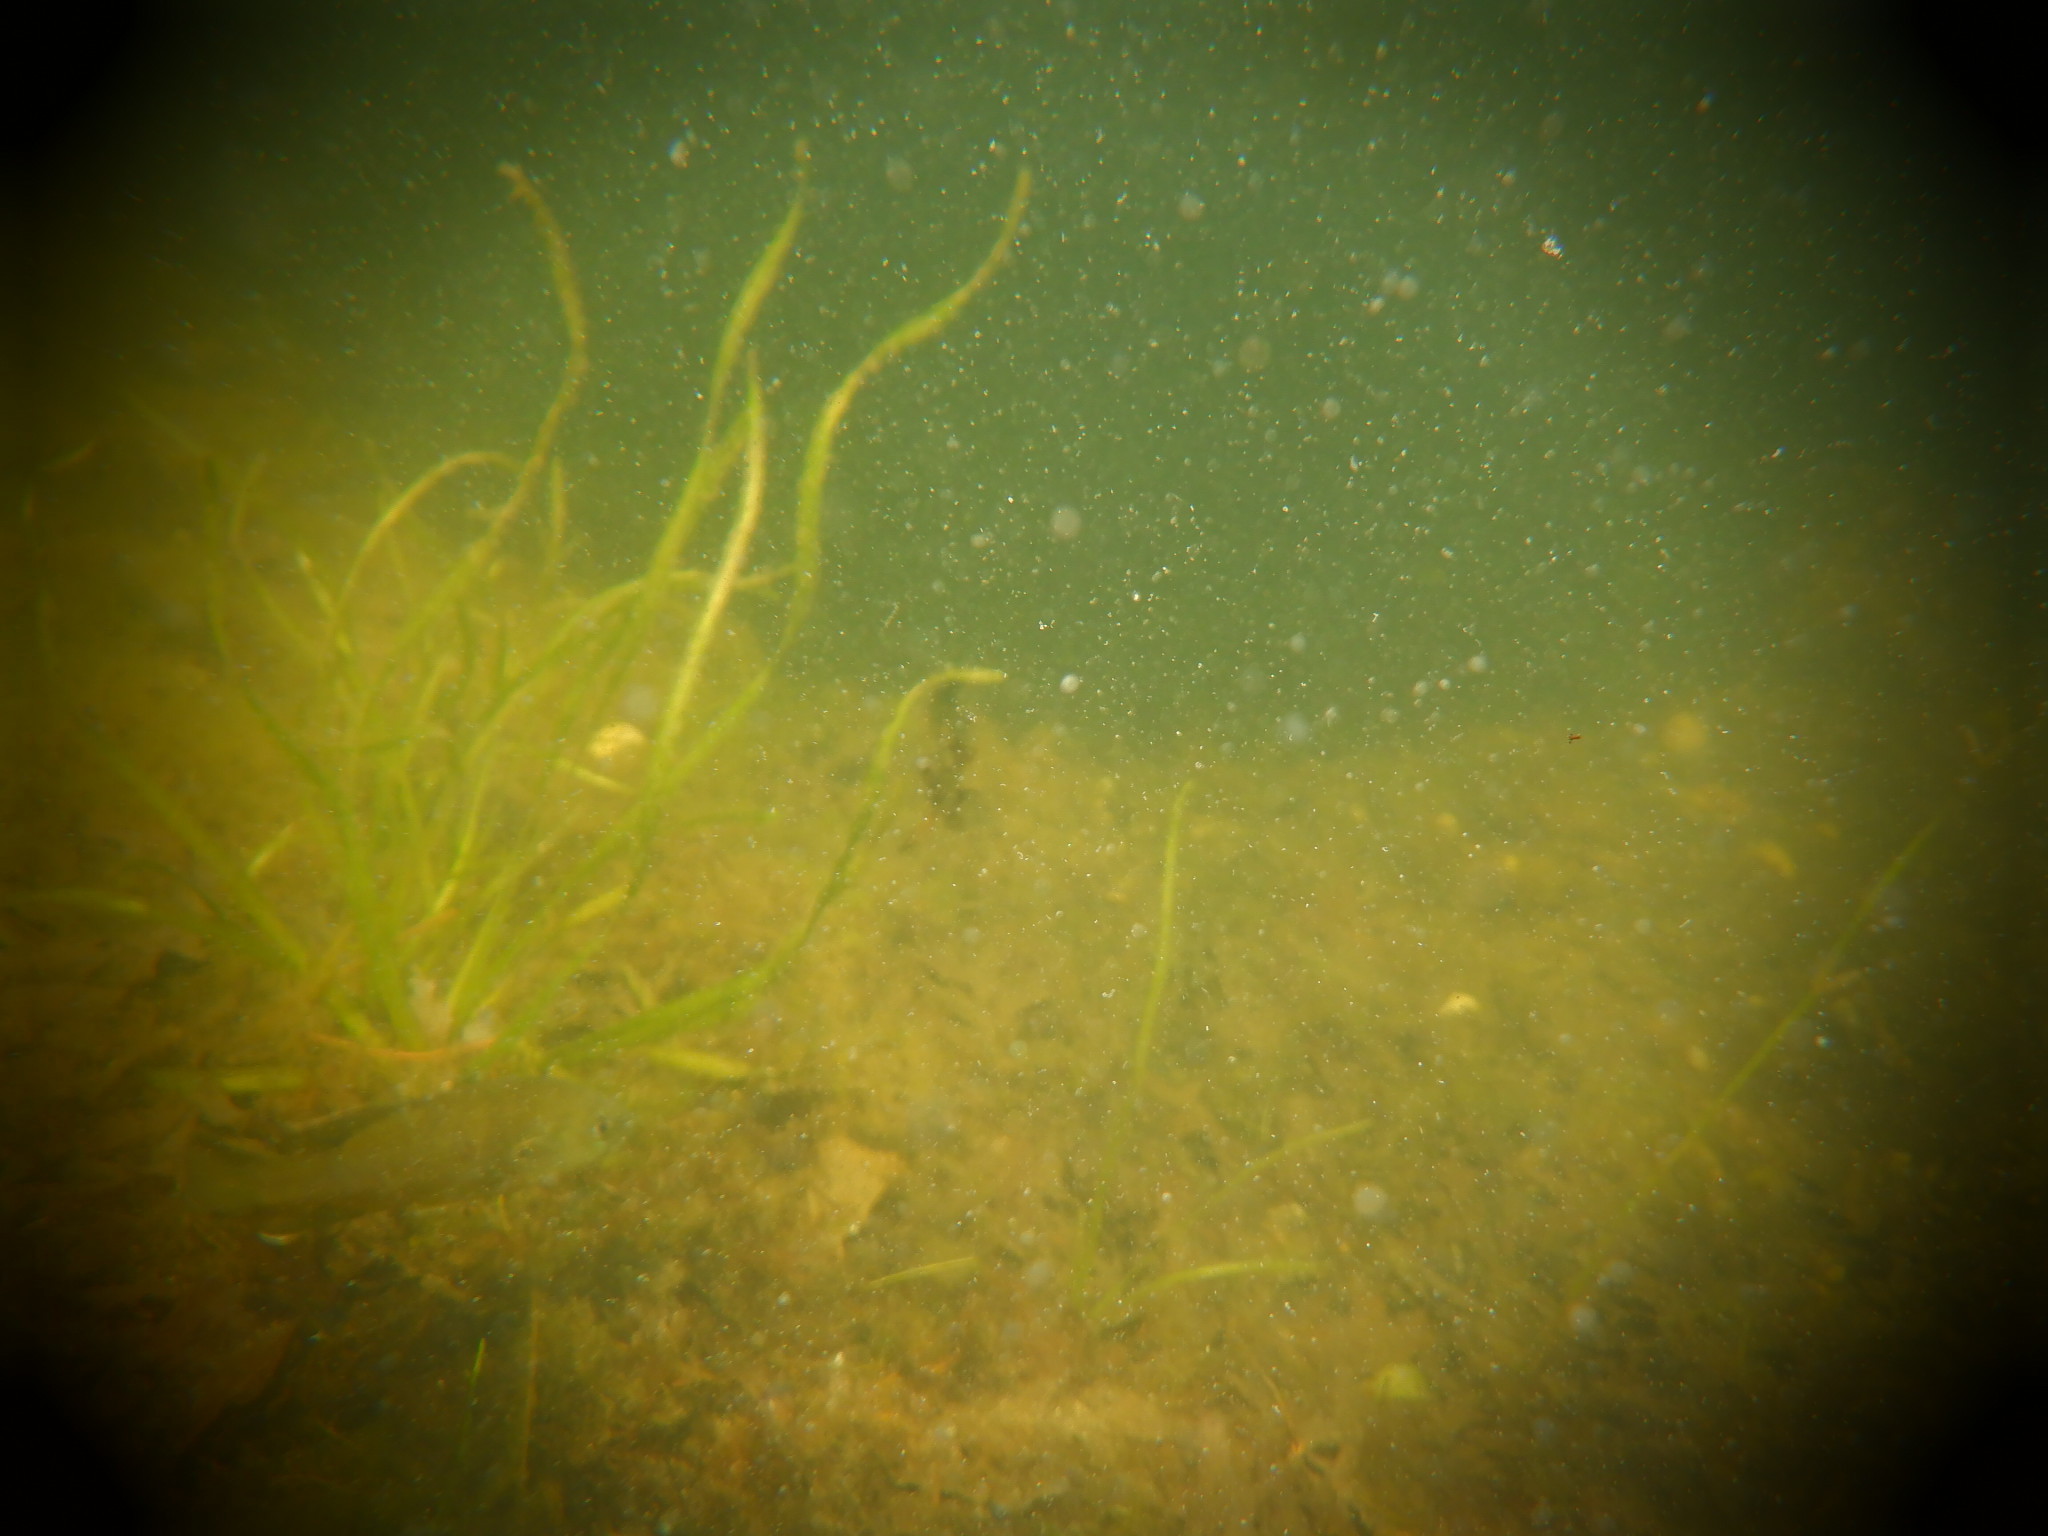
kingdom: Animalia
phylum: Chordata
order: Perciformes
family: Centrarchidae
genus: Lepomis
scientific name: Lepomis cyanellus
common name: Green sunfish
